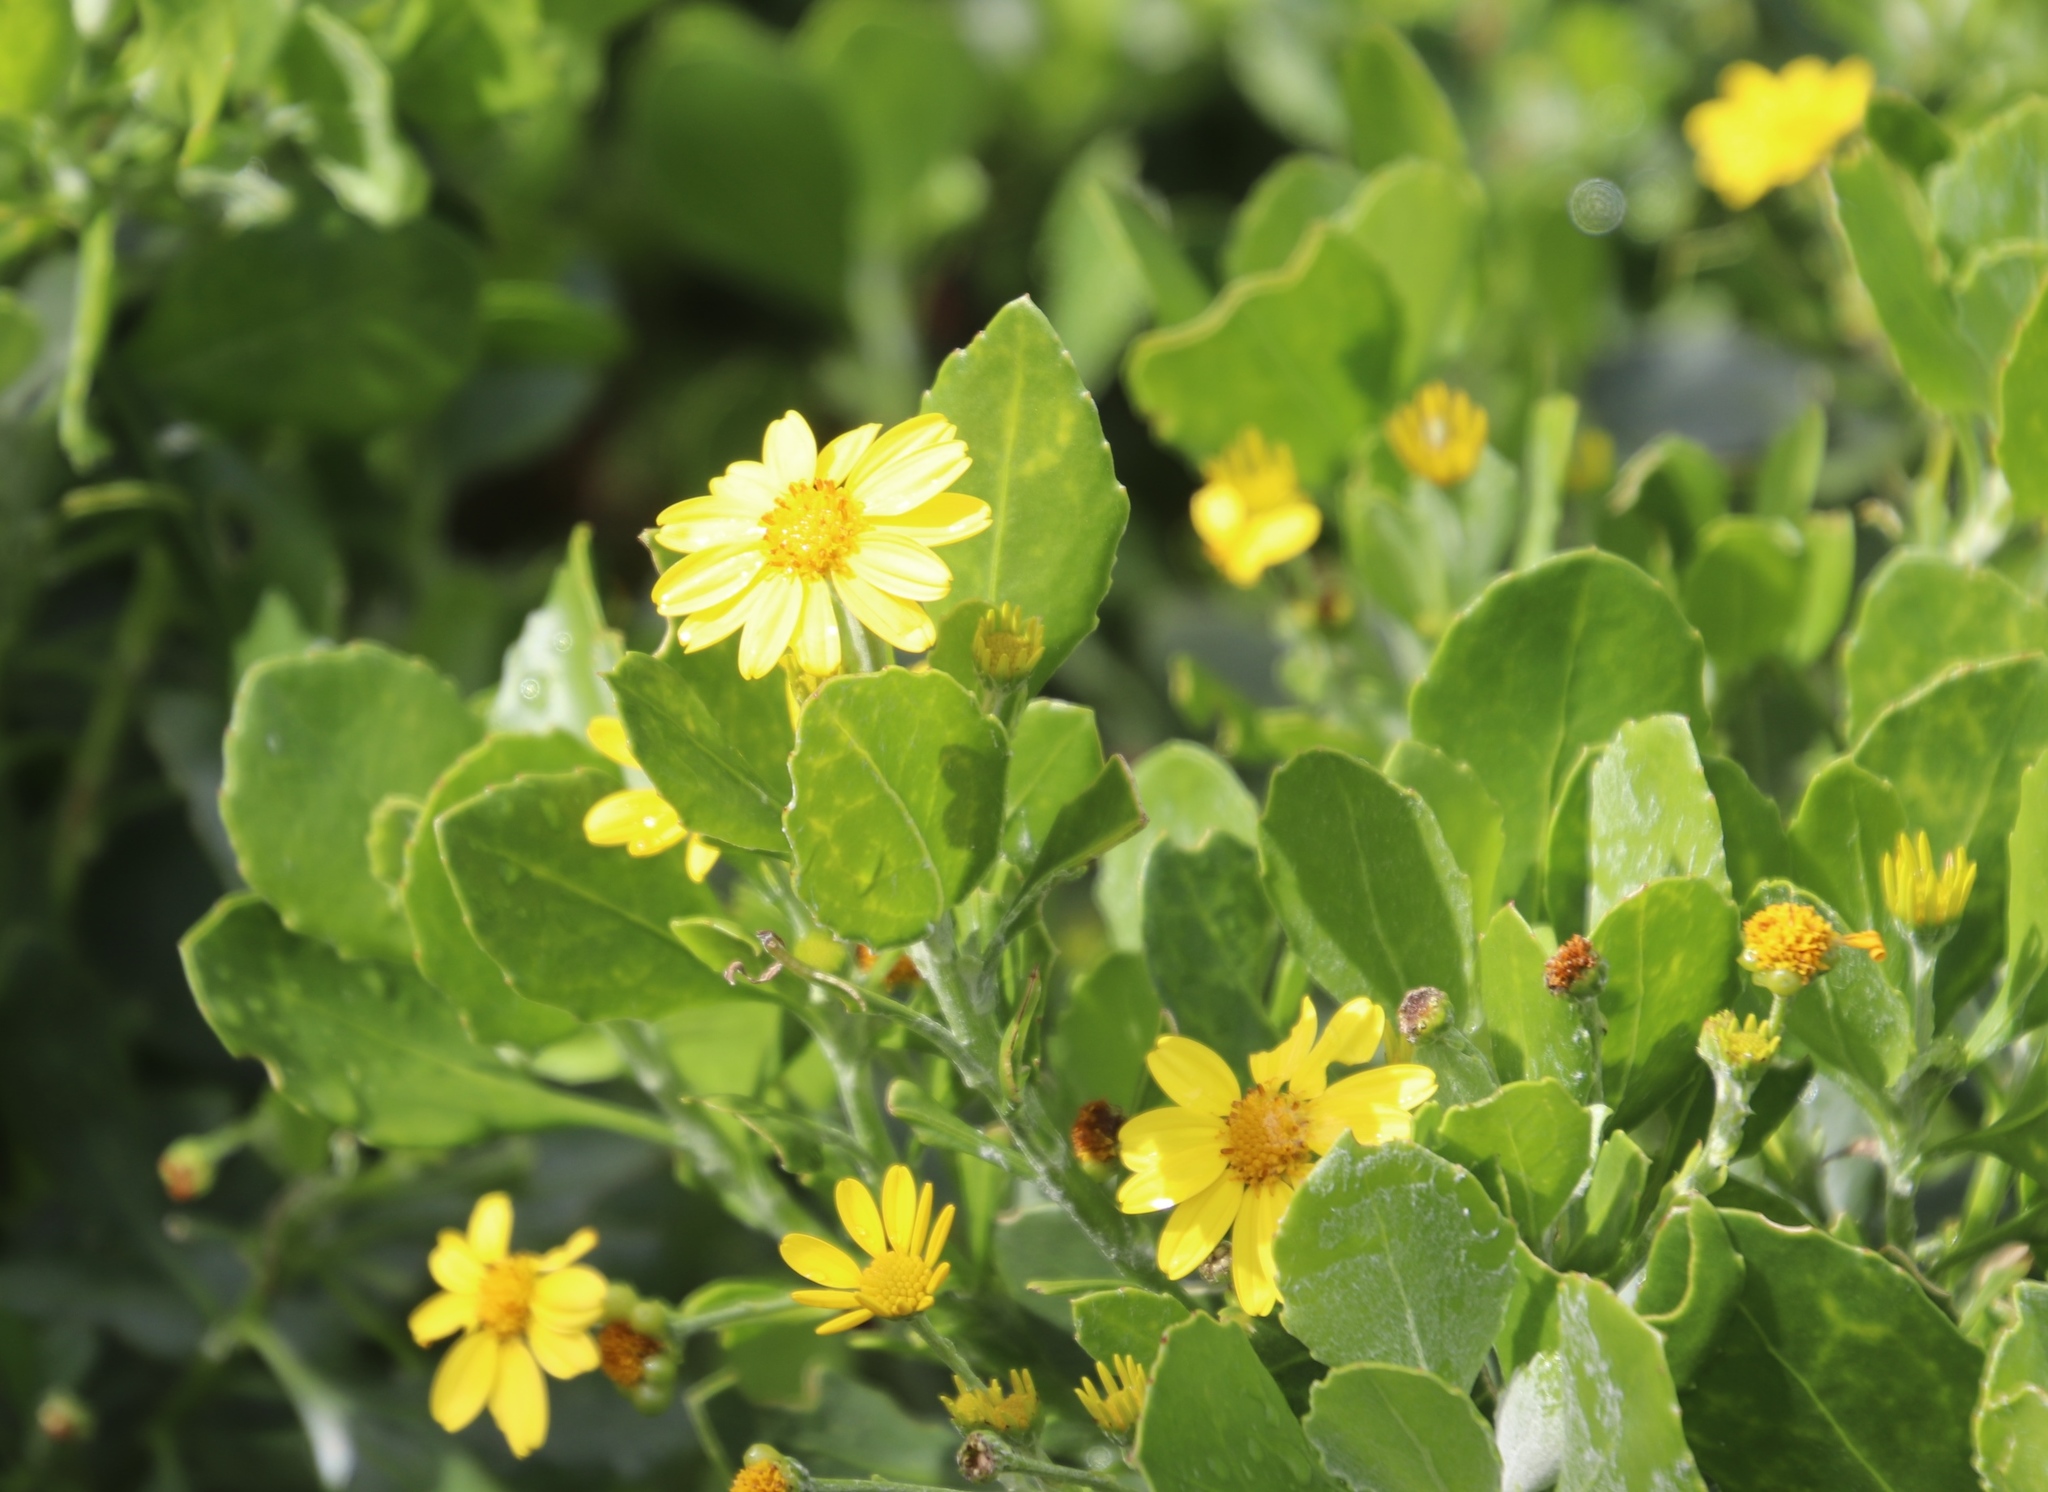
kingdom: Plantae
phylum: Tracheophyta
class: Magnoliopsida
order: Asterales
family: Asteraceae
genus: Osteospermum
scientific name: Osteospermum moniliferum
